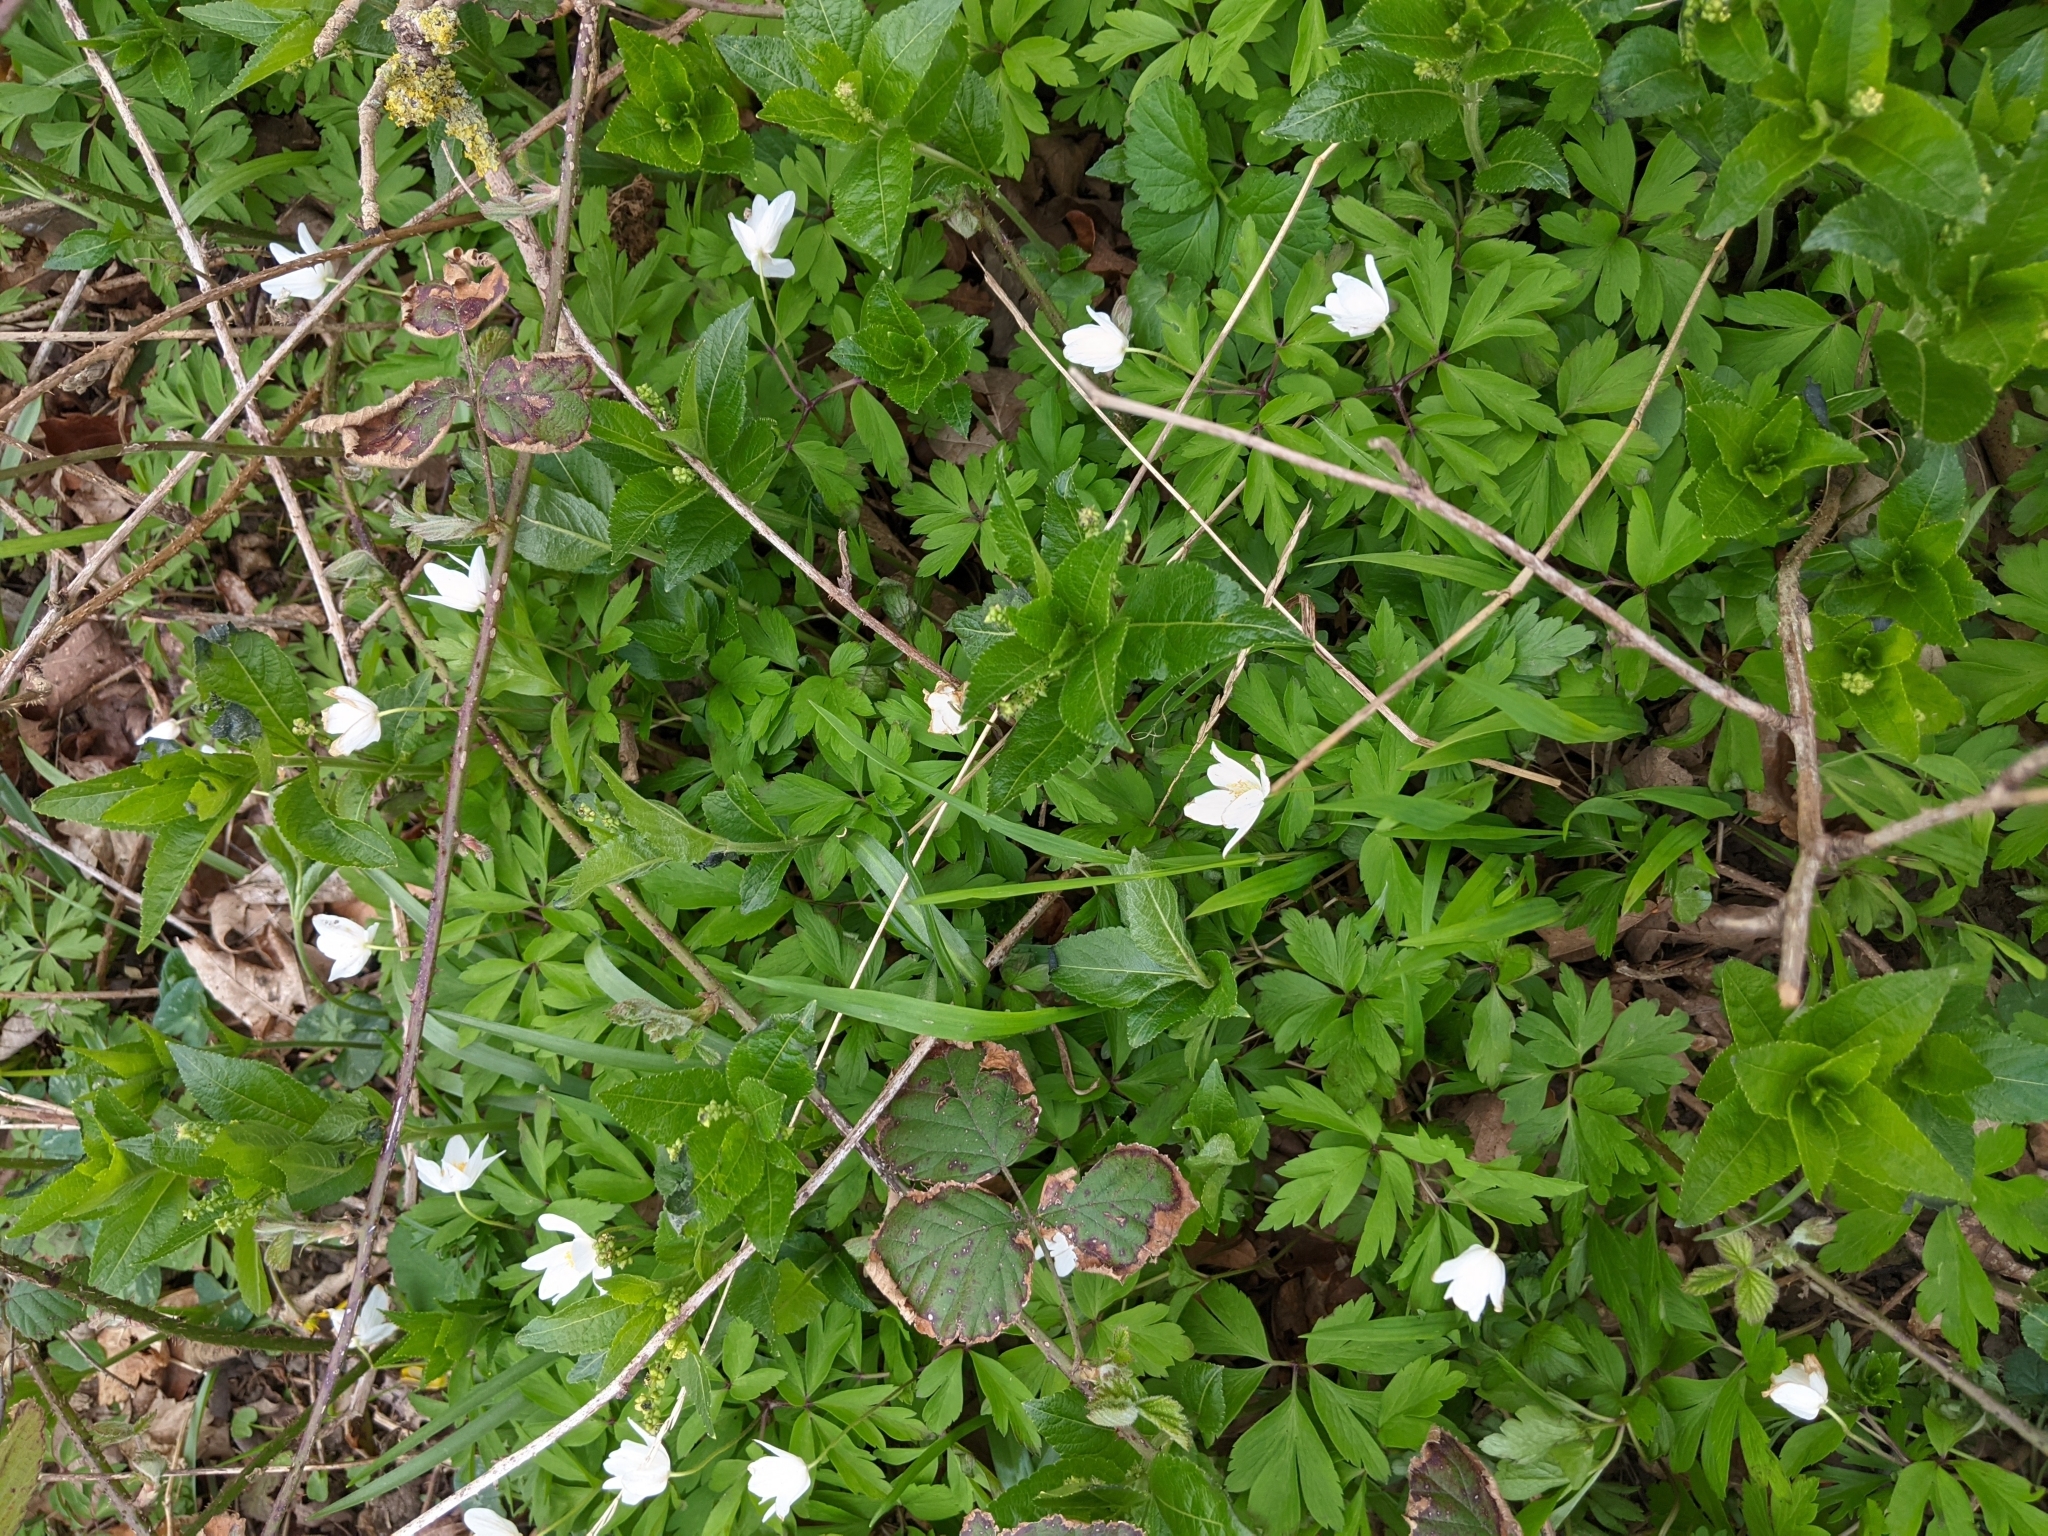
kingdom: Plantae
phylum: Tracheophyta
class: Magnoliopsida
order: Ranunculales
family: Ranunculaceae
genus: Anemone
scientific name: Anemone nemorosa
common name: Wood anemone
